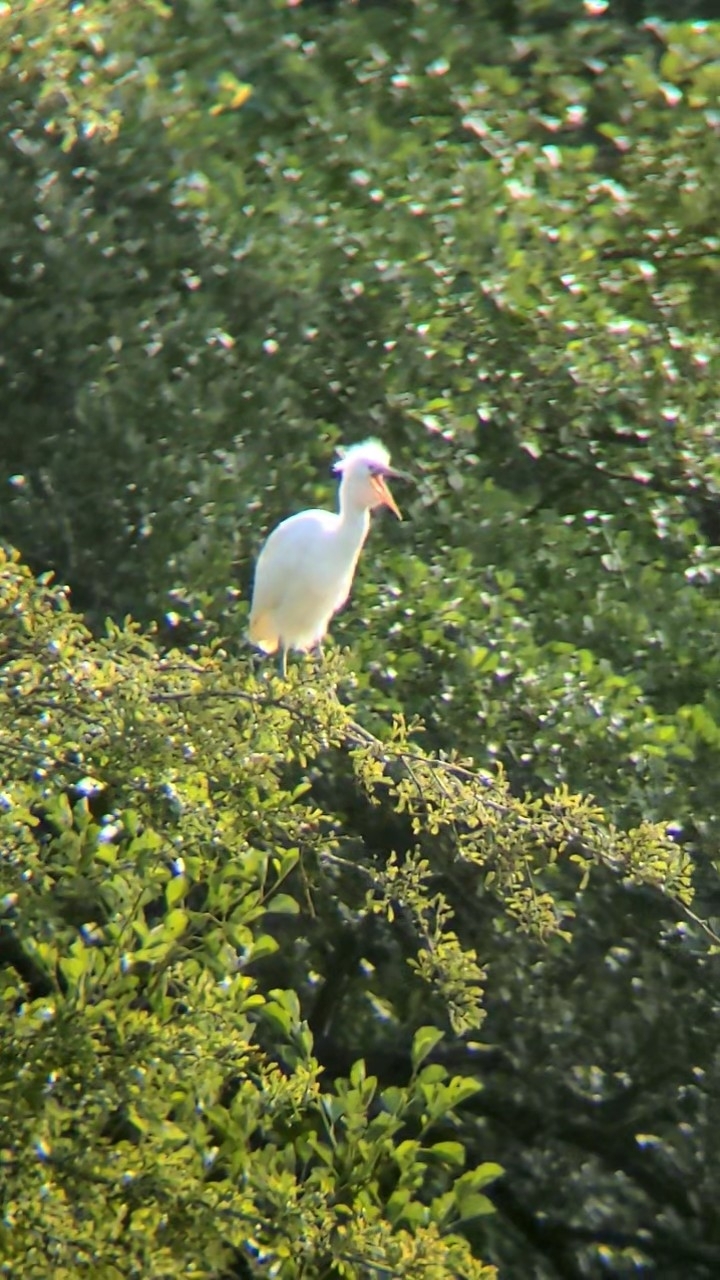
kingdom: Animalia
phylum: Chordata
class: Aves
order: Pelecaniformes
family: Ardeidae
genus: Bubulcus
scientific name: Bubulcus ibis
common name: Cattle egret
